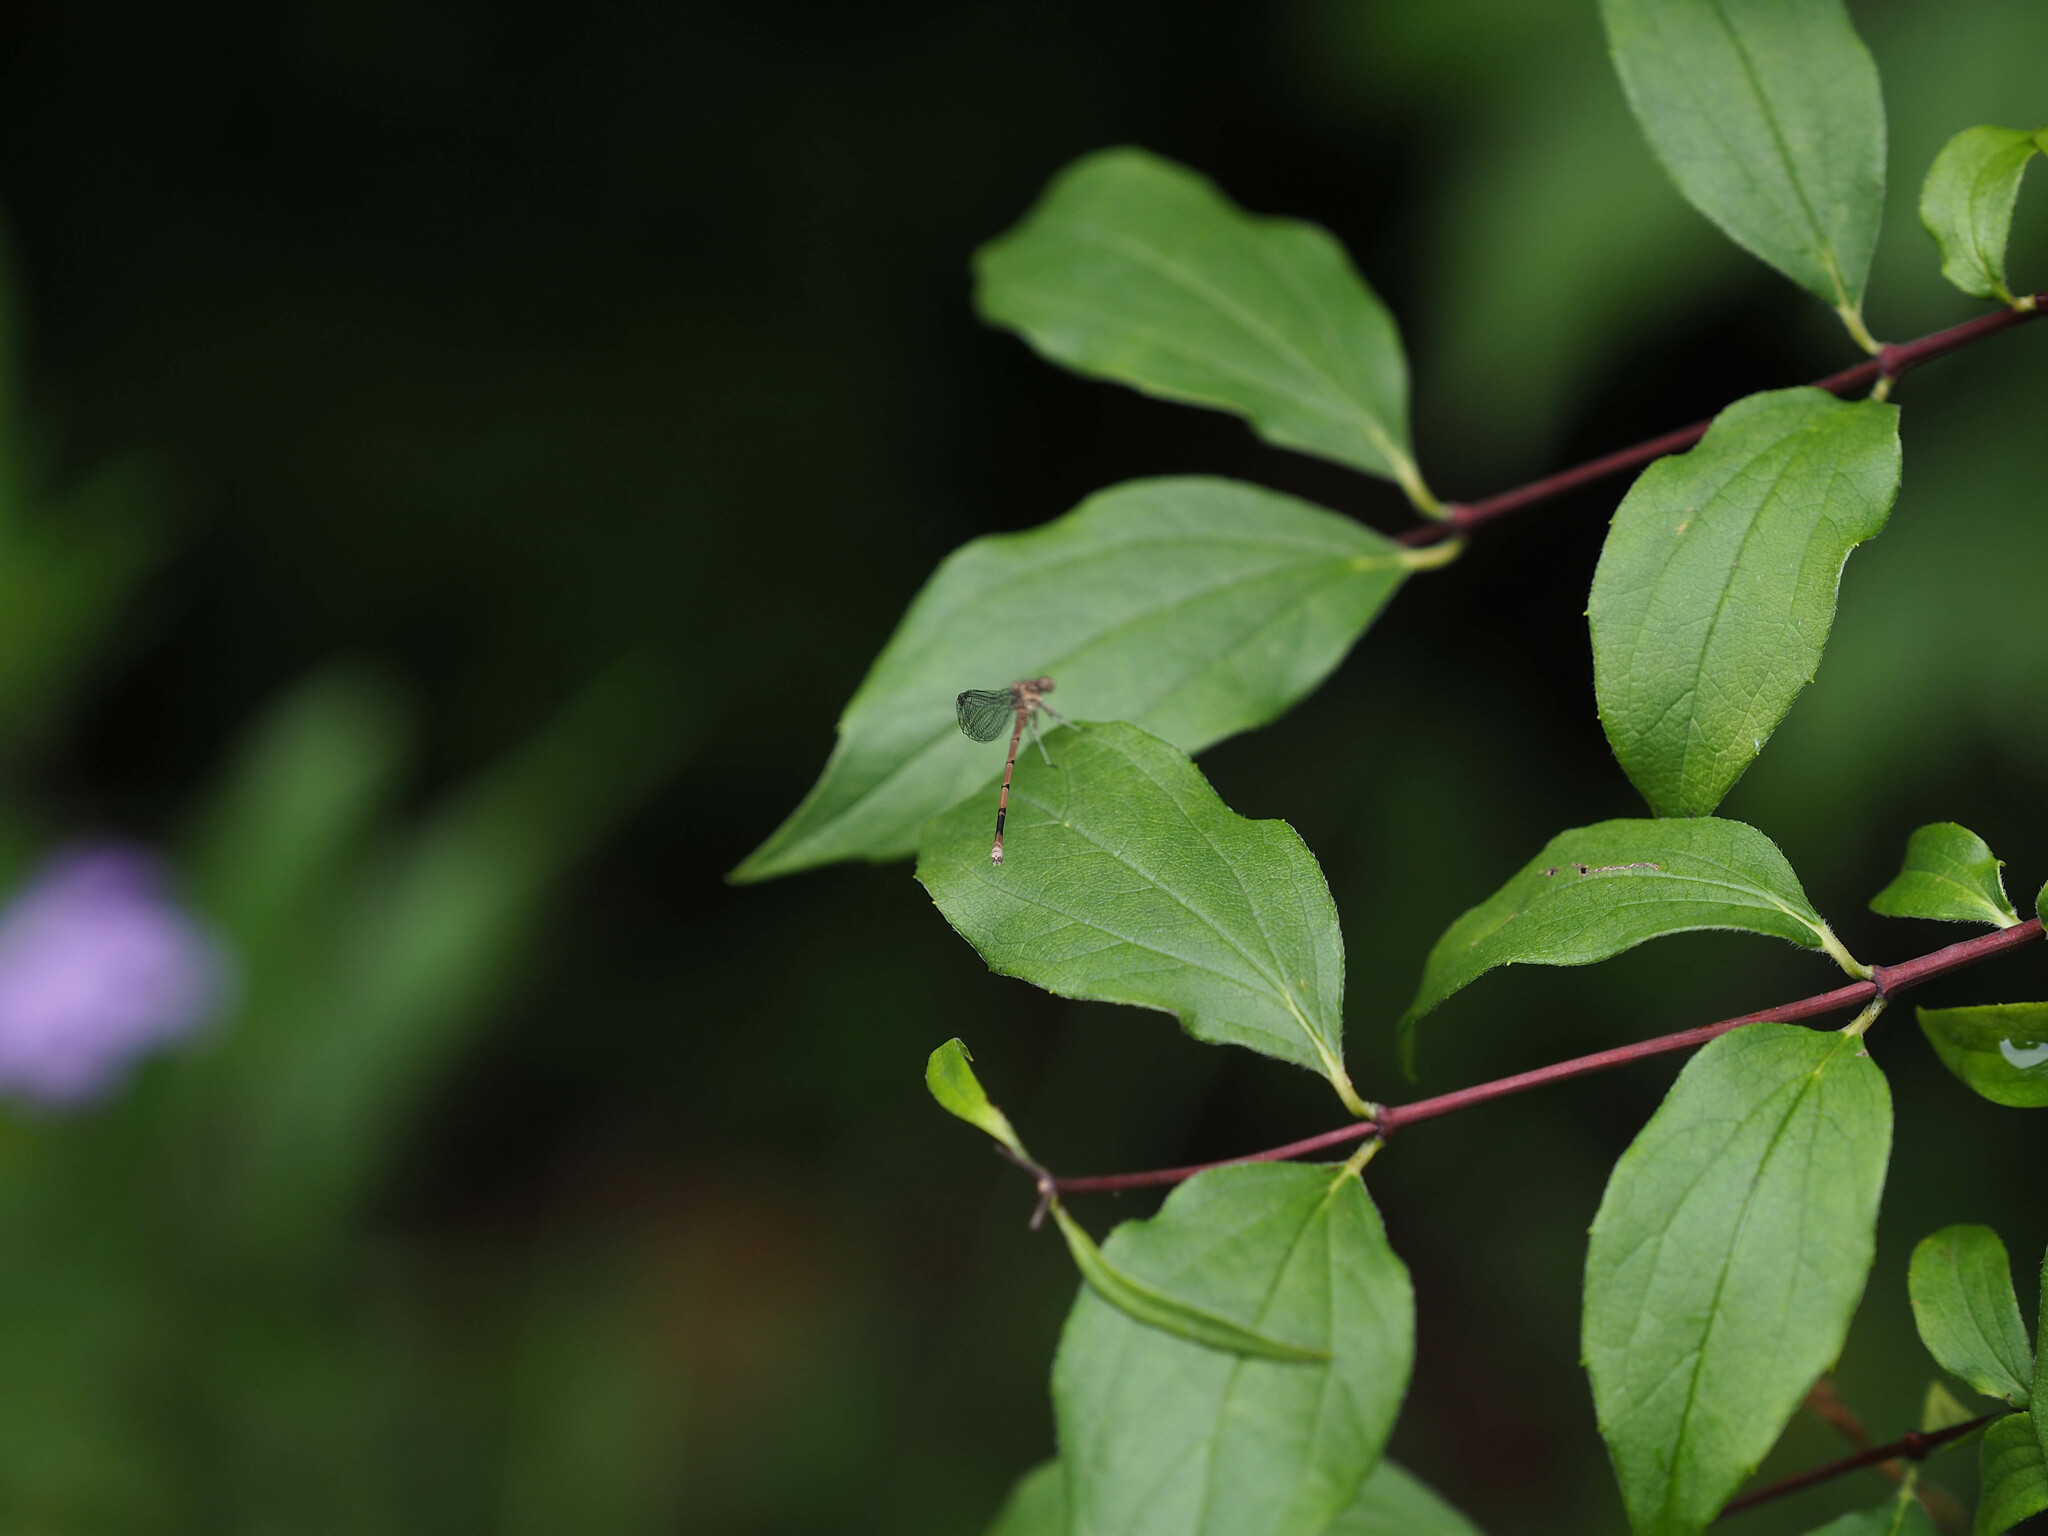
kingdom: Animalia
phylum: Arthropoda
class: Insecta
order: Odonata
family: Coenagrionidae
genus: Argia
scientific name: Argia fumipennis
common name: Variable dancer
